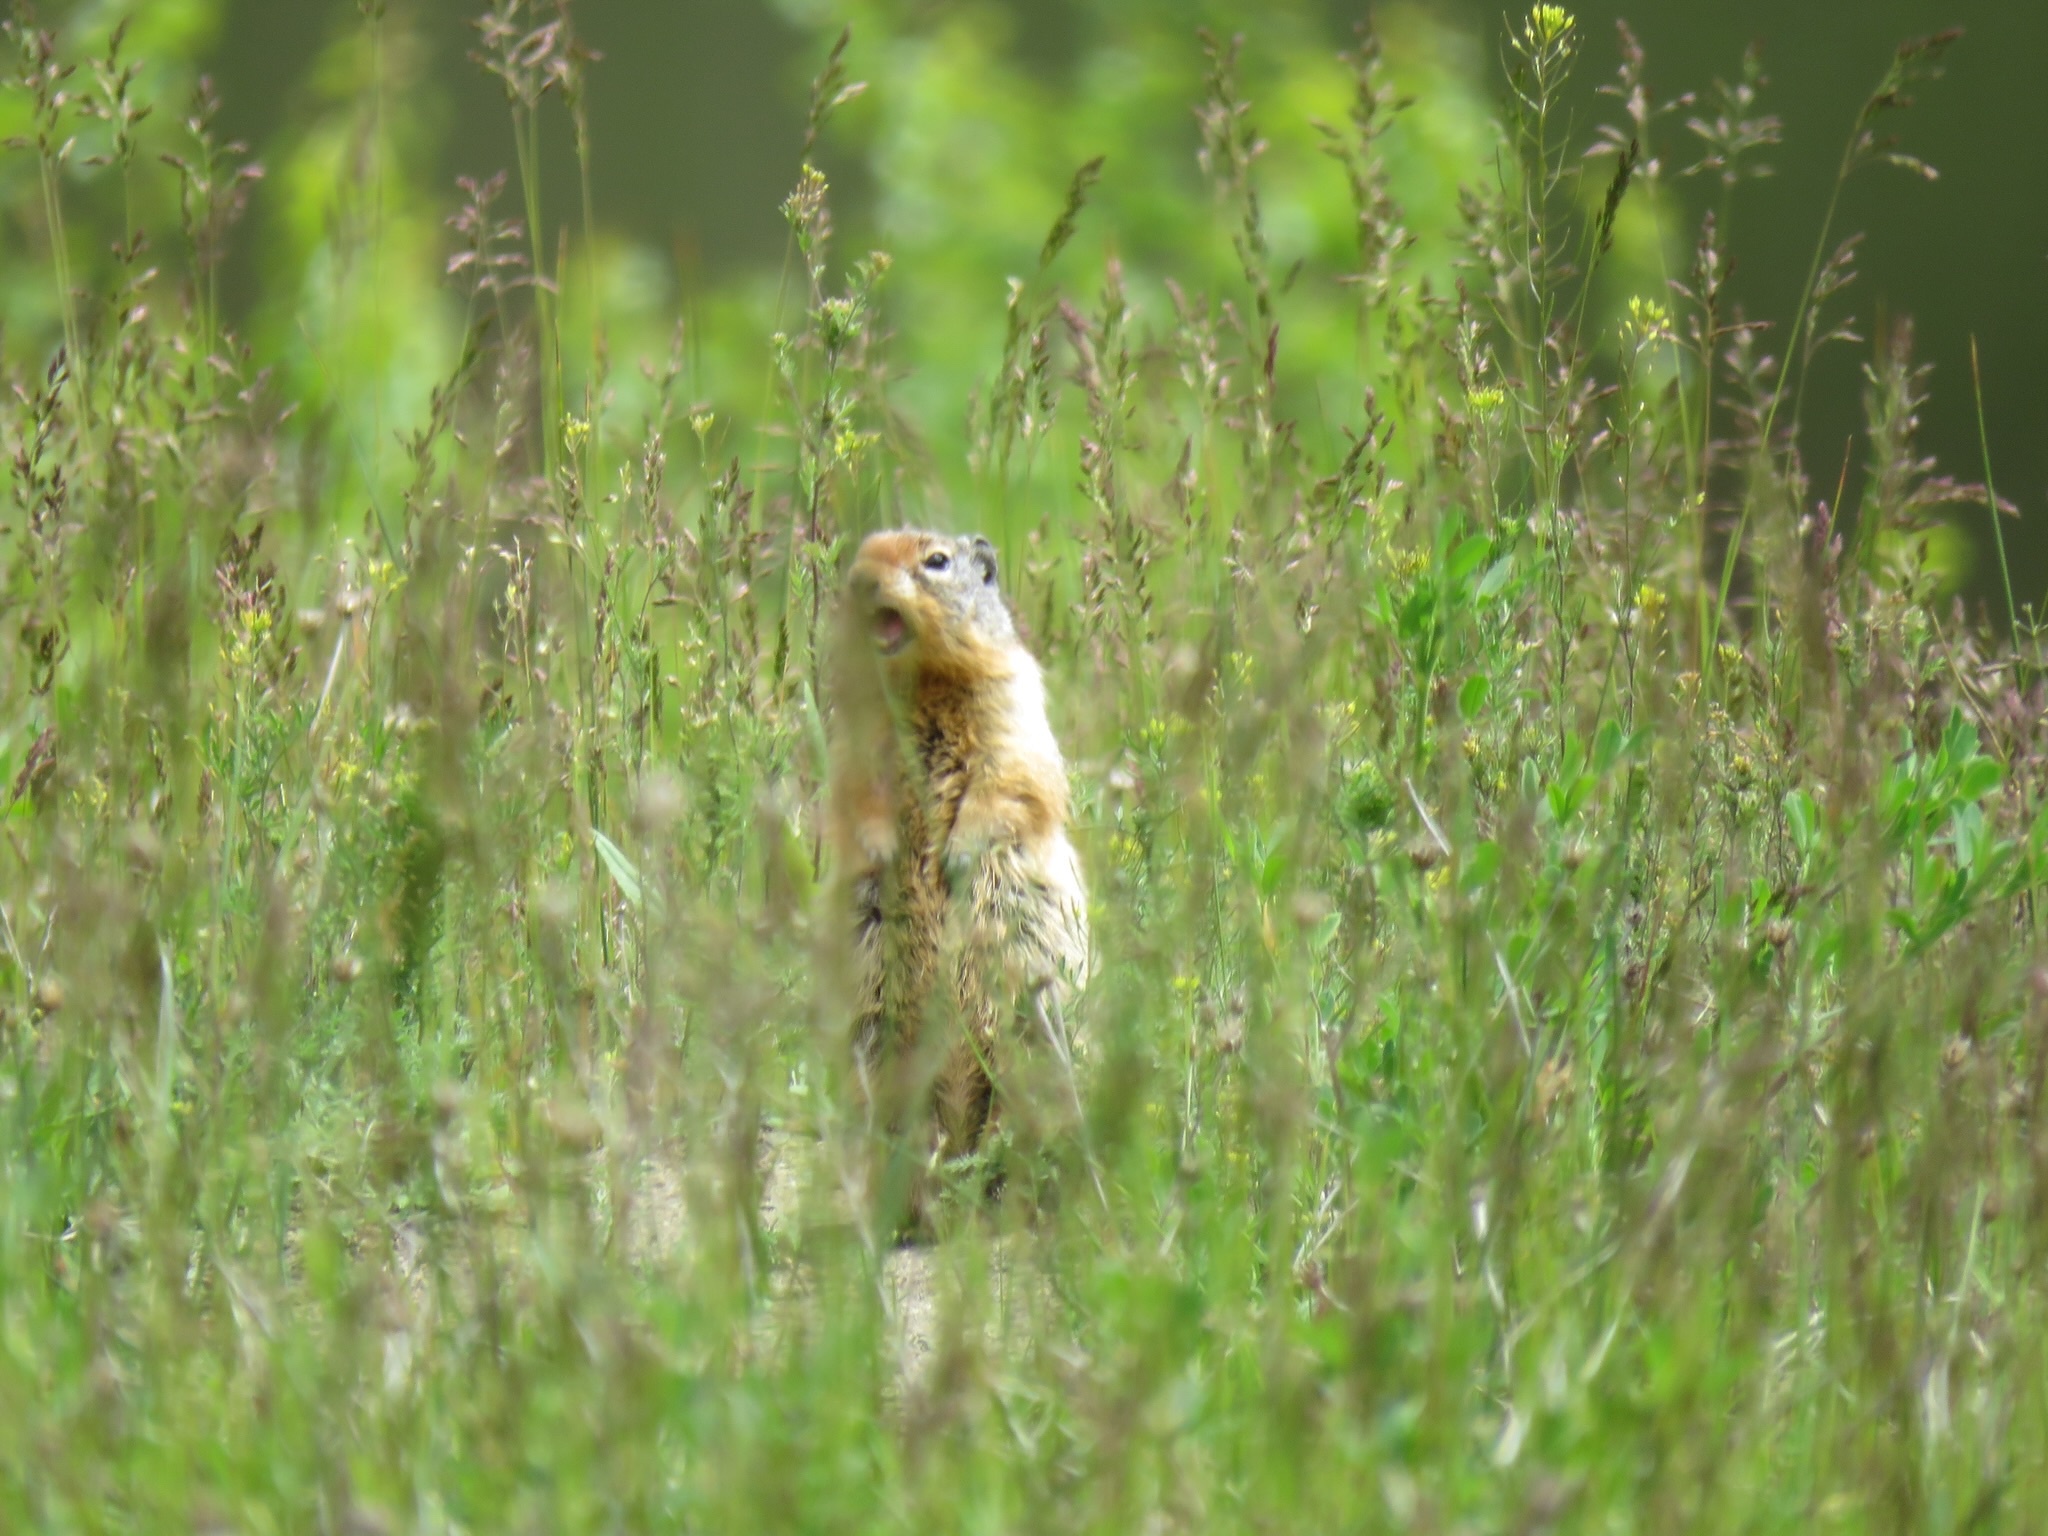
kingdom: Animalia
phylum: Chordata
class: Mammalia
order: Rodentia
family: Sciuridae
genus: Urocitellus
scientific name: Urocitellus columbianus
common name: Columbian ground squirrel
